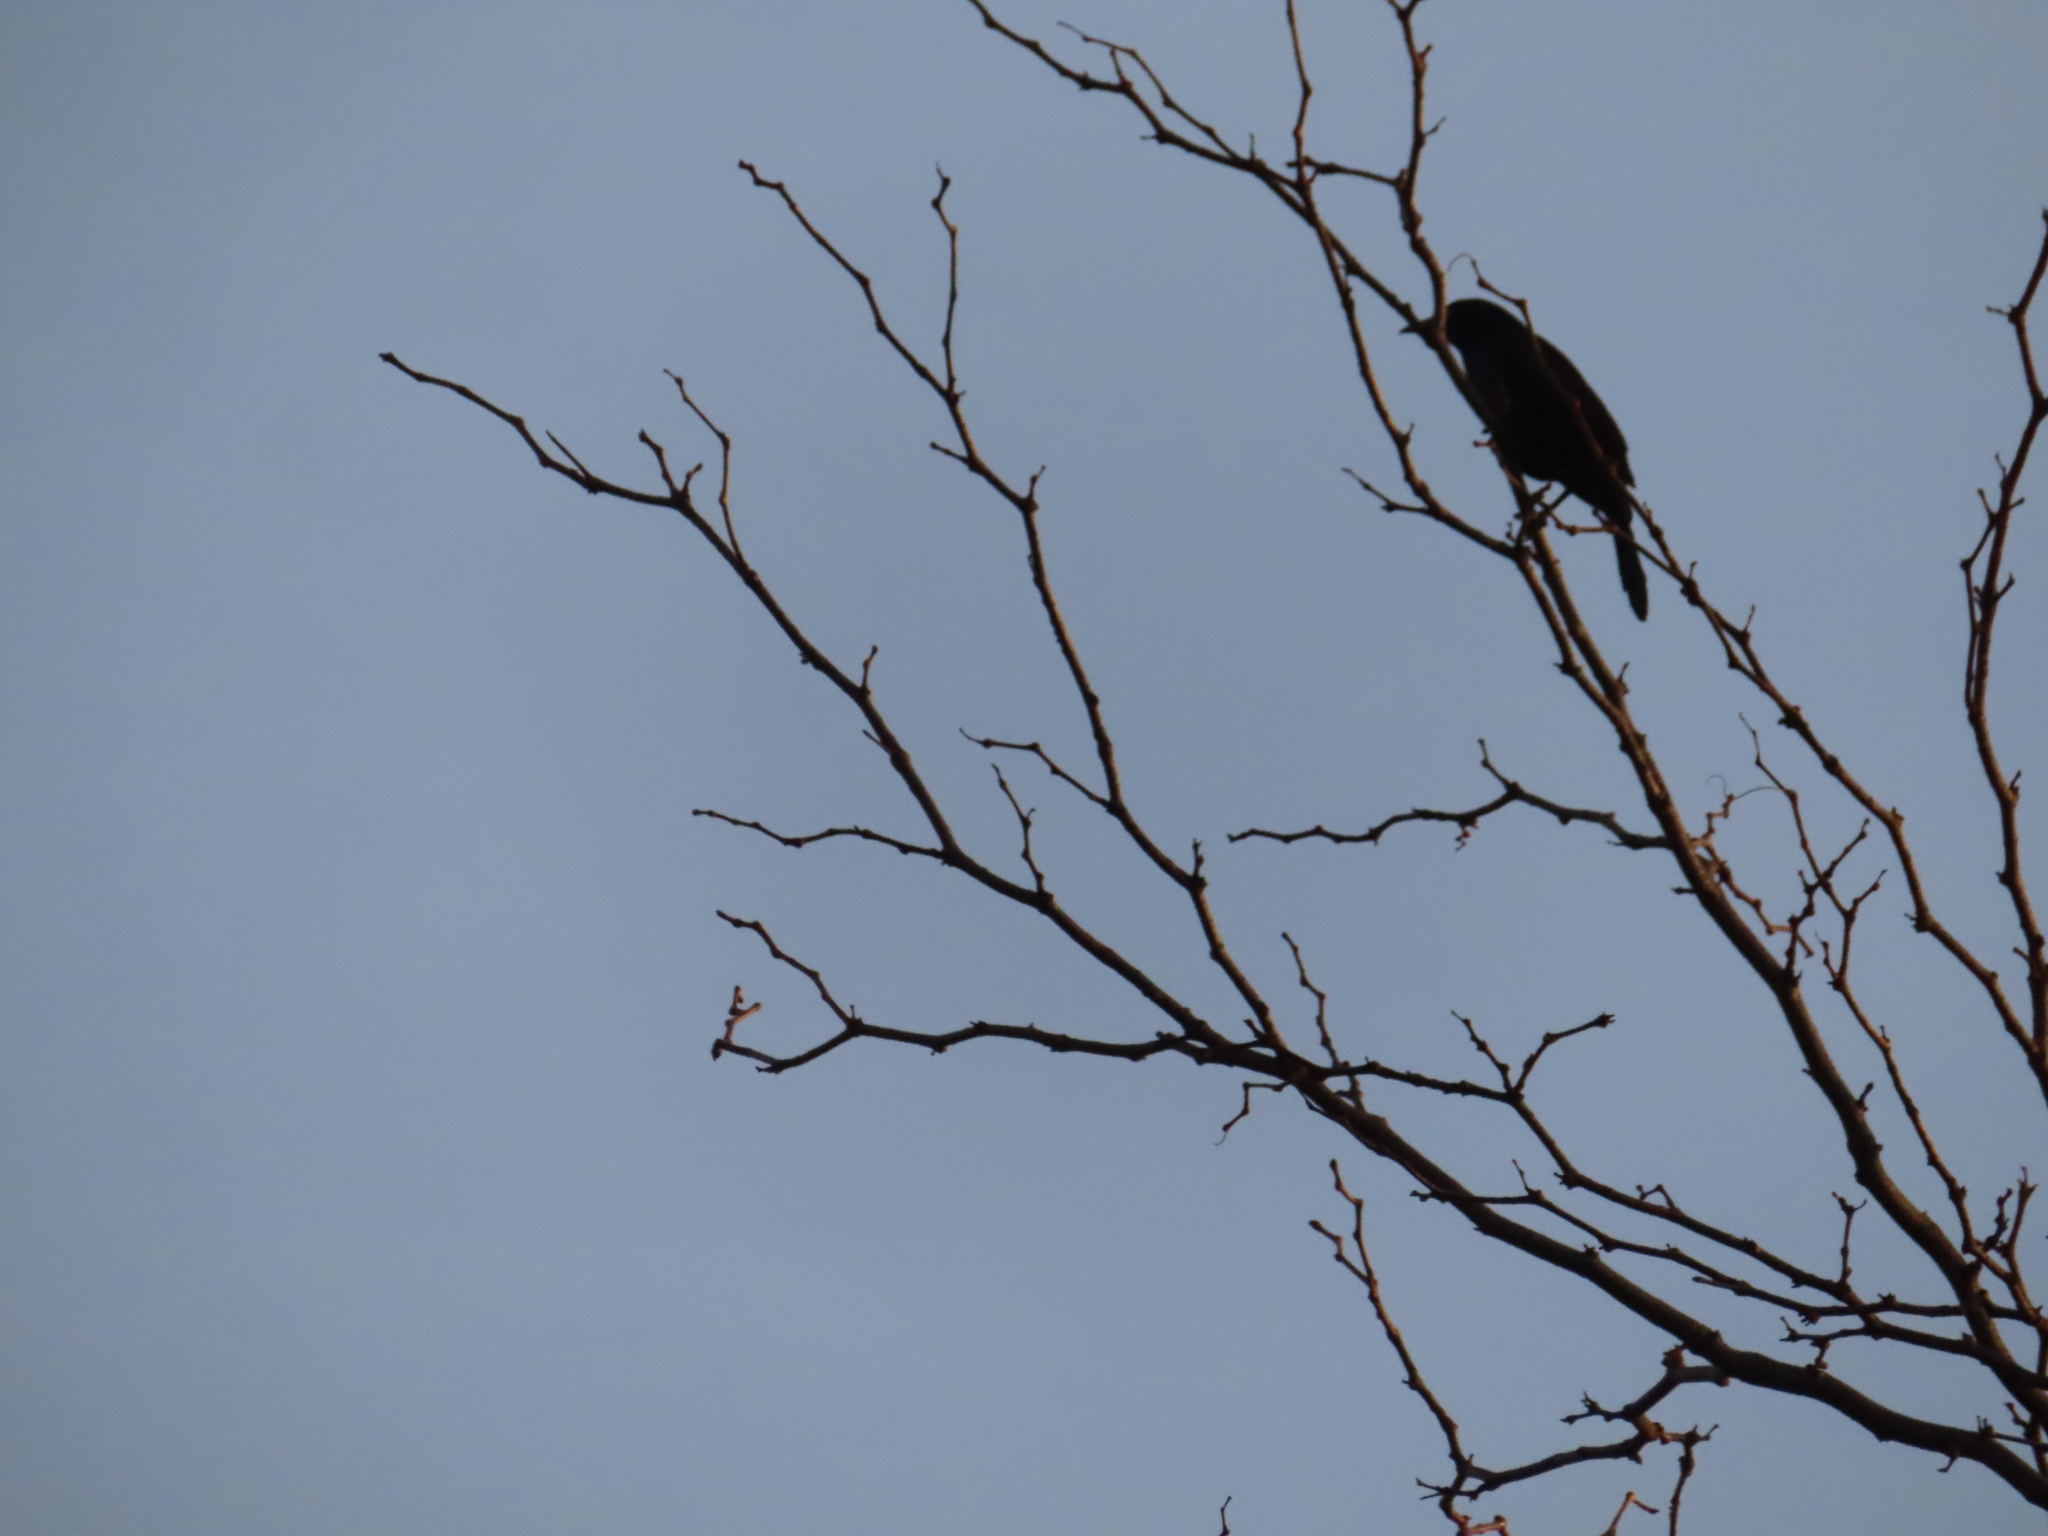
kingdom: Animalia
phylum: Chordata
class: Aves
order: Passeriformes
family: Icteridae
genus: Quiscalus
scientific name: Quiscalus quiscula
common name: Common grackle
